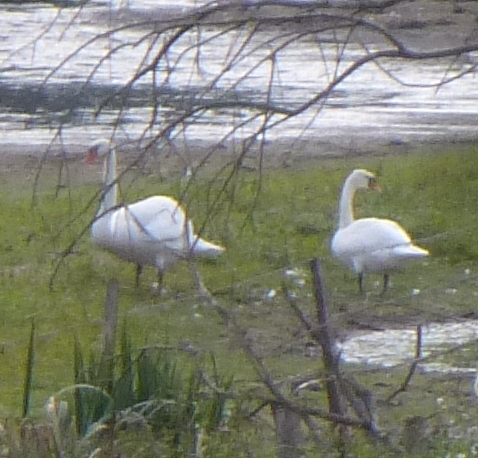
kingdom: Animalia
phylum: Chordata
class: Aves
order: Anseriformes
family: Anatidae
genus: Cygnus
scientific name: Cygnus olor
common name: Mute swan
